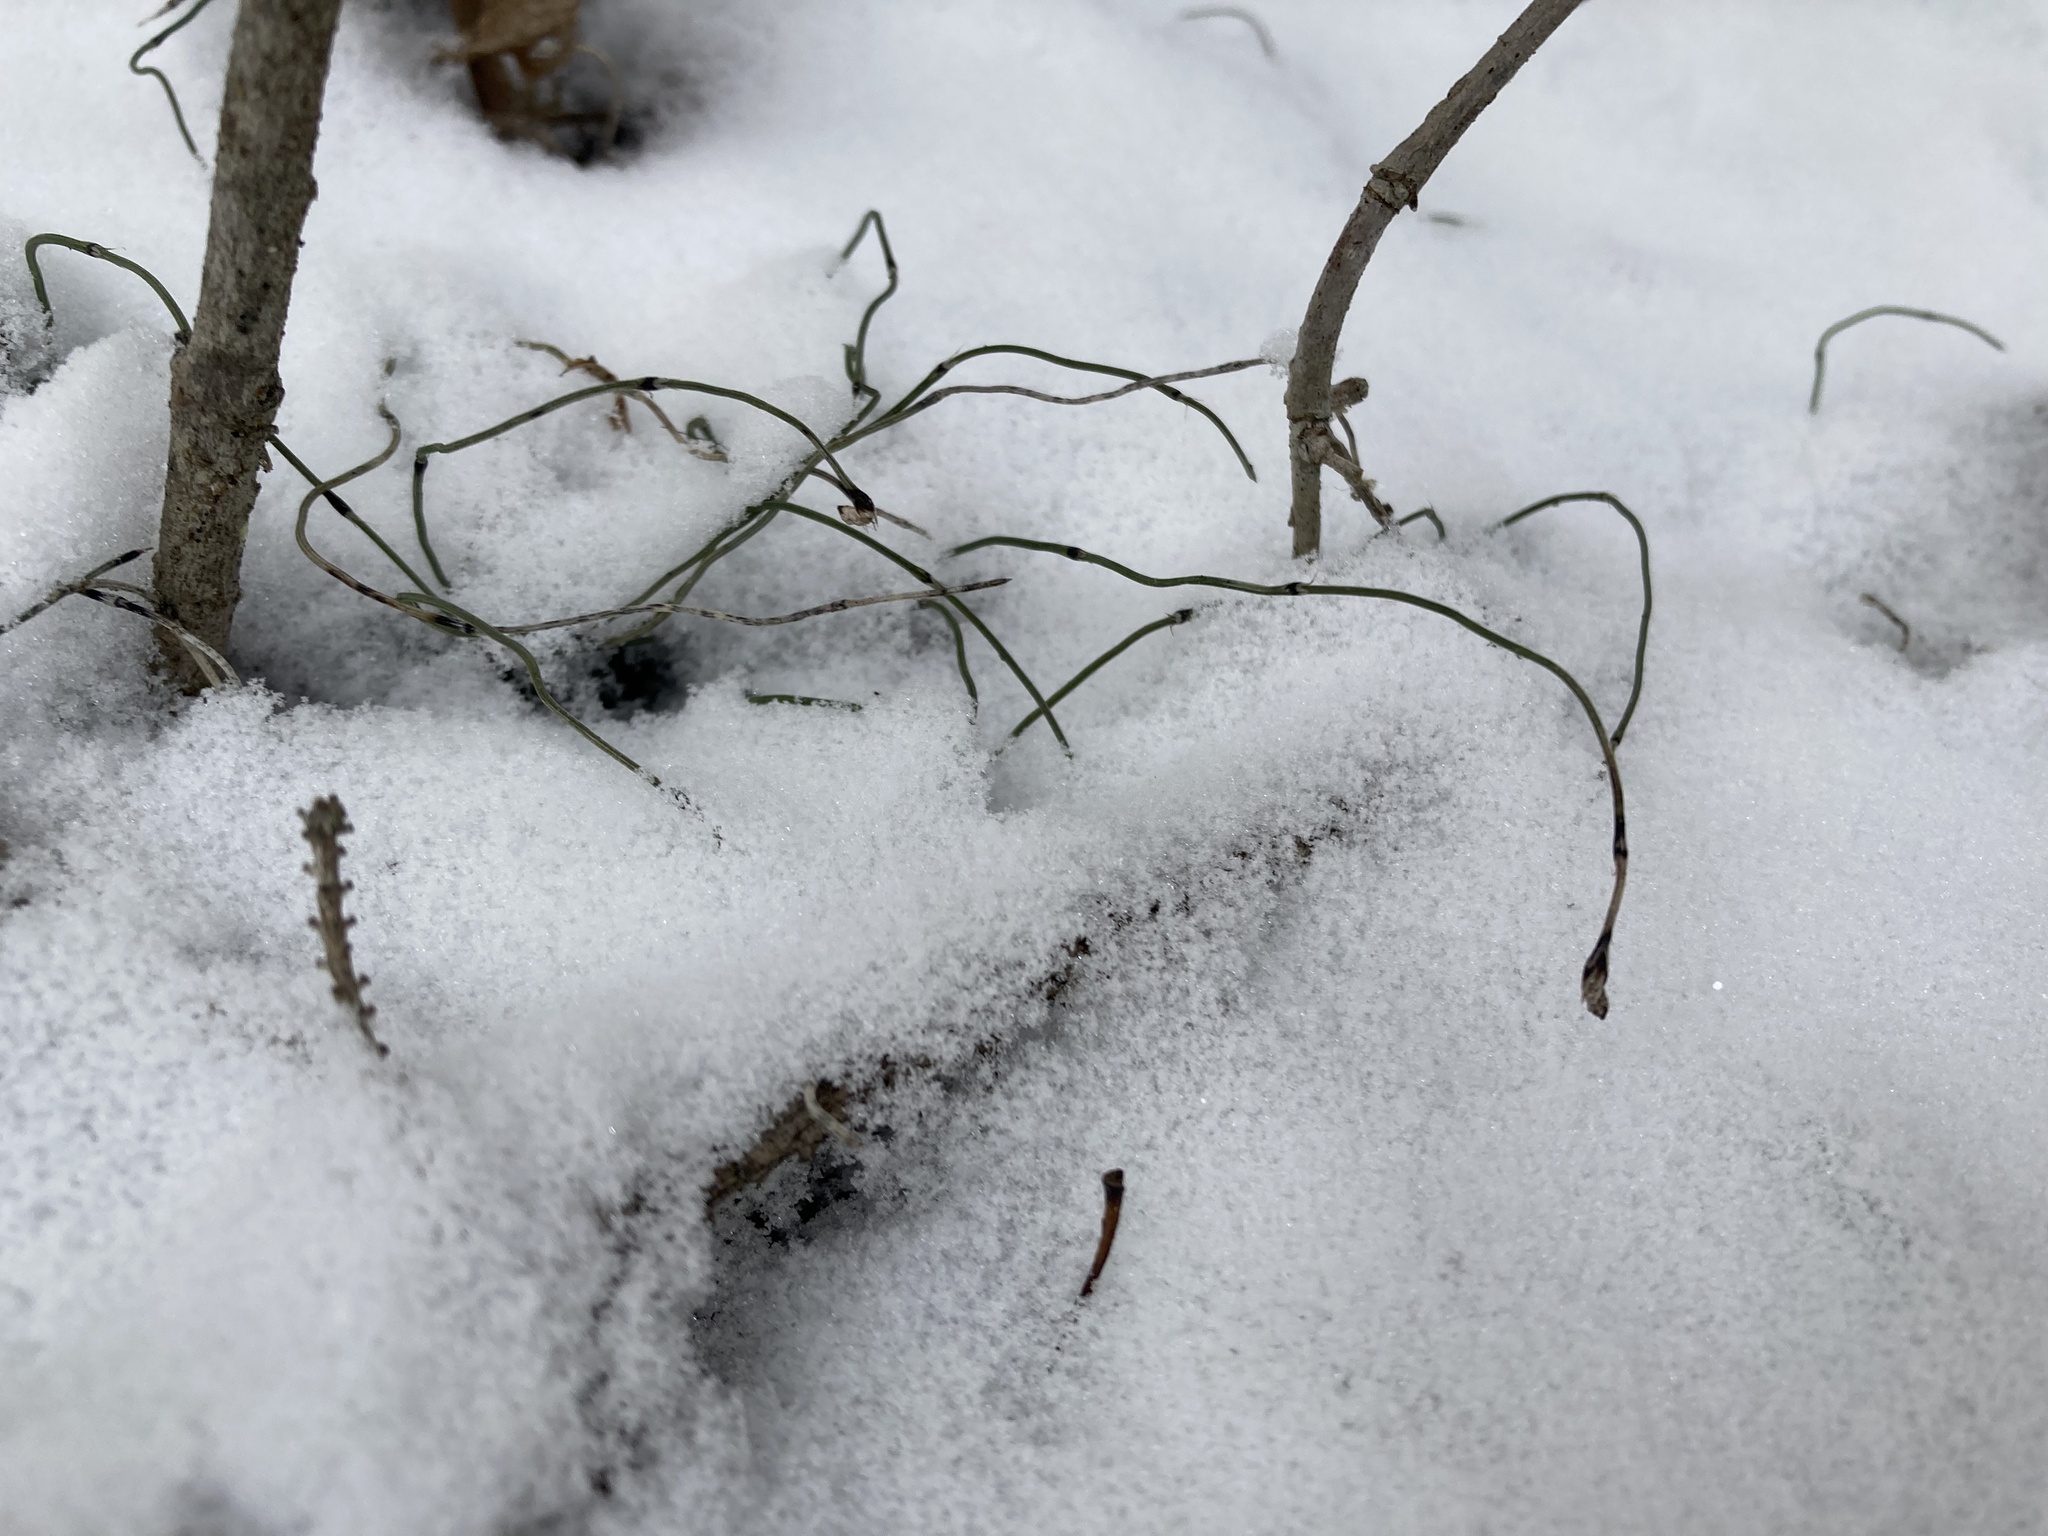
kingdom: Plantae
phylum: Tracheophyta
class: Polypodiopsida
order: Equisetales
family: Equisetaceae
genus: Equisetum
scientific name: Equisetum scirpoides
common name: Delicate horsetail
